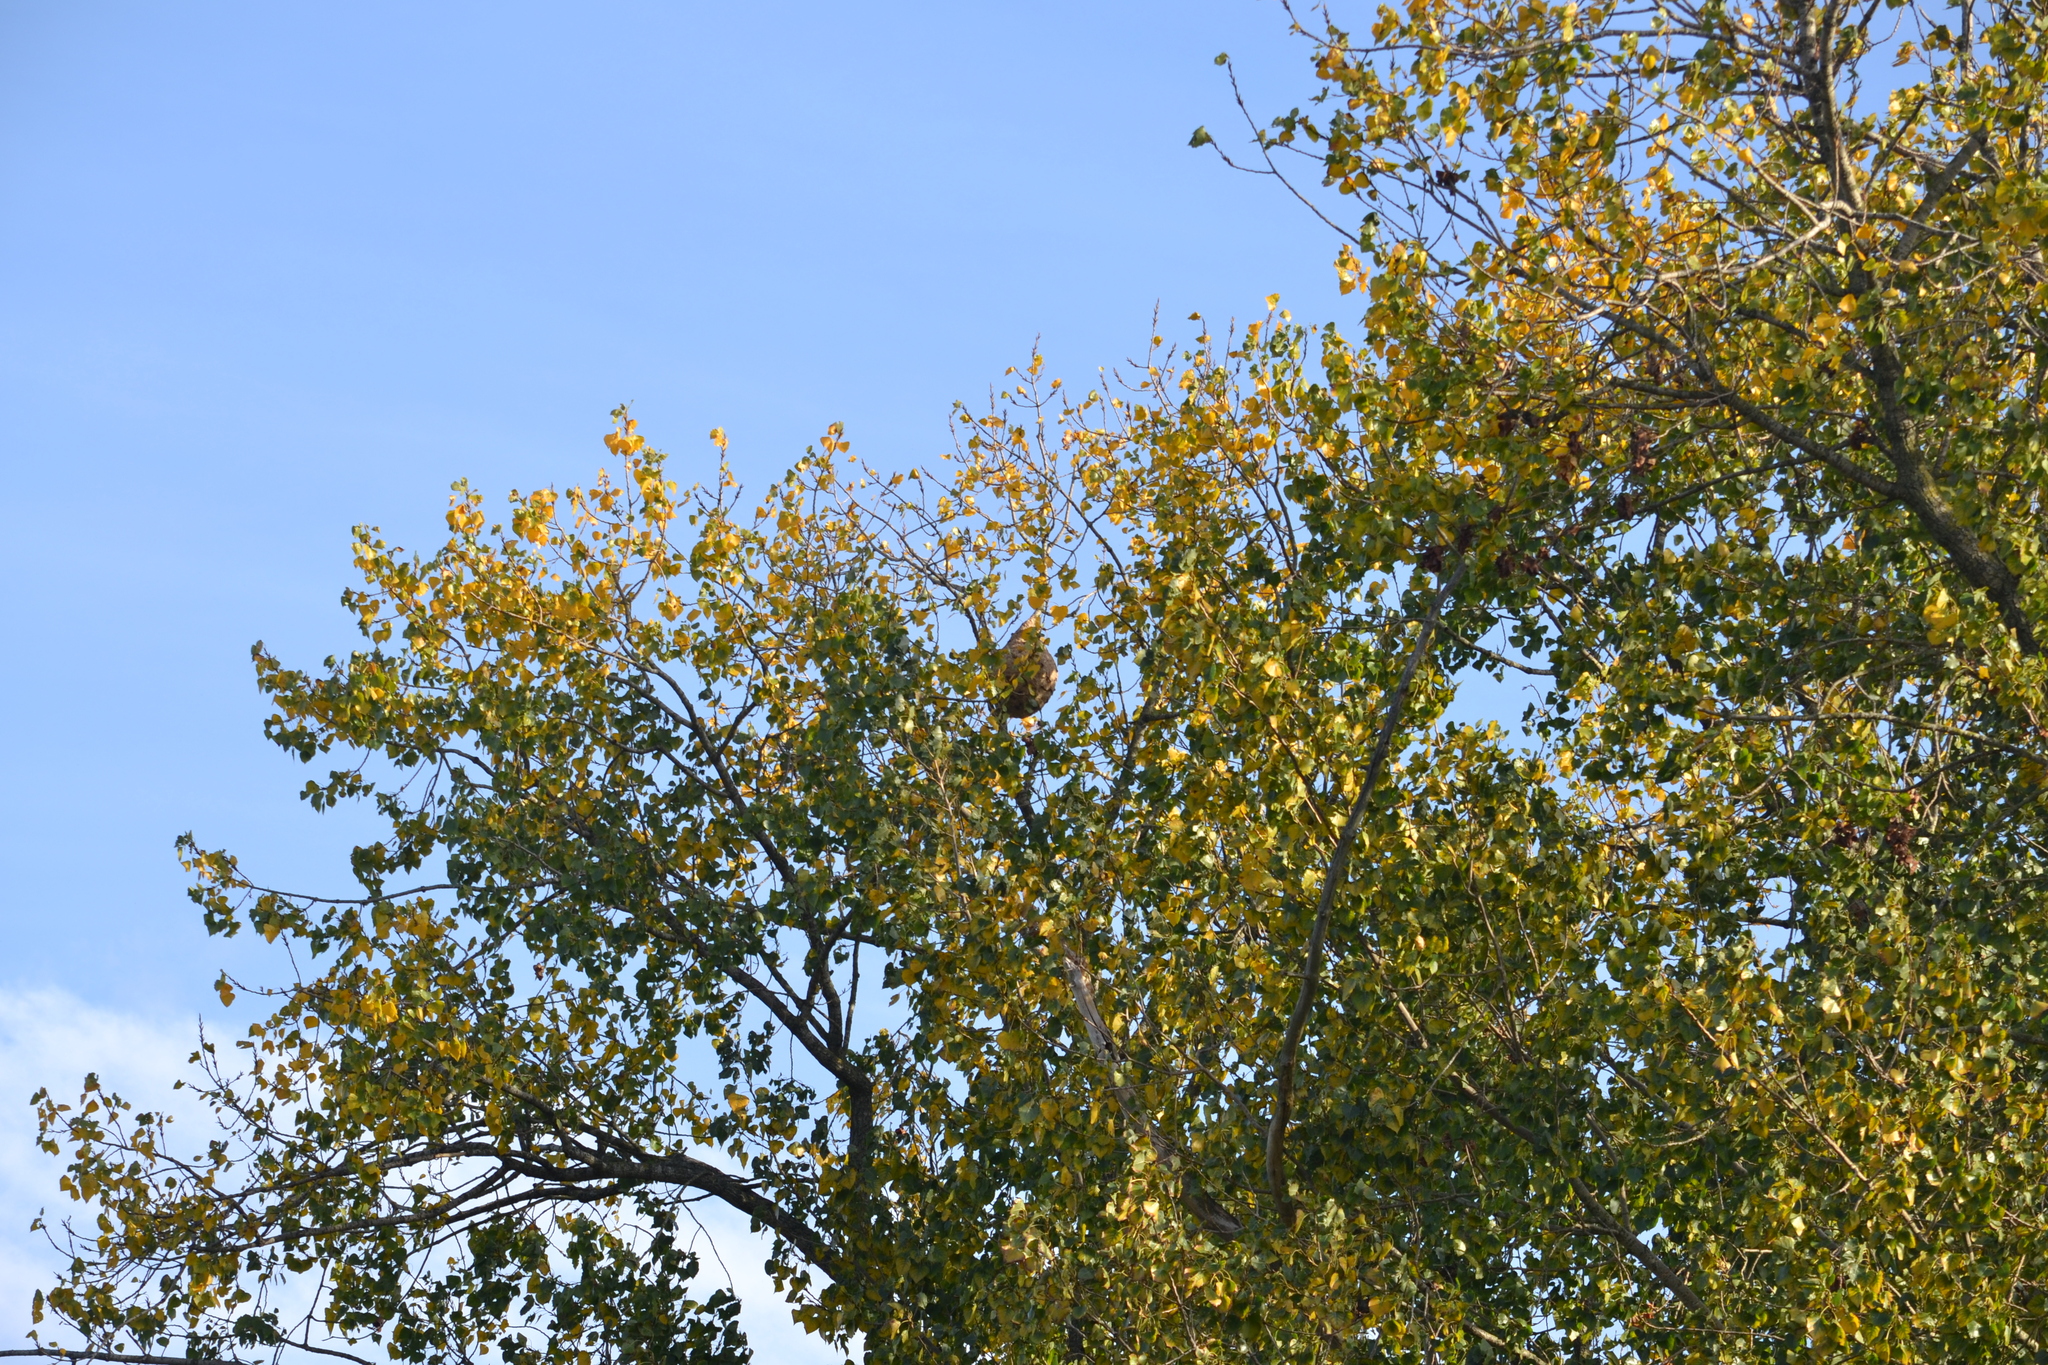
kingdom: Animalia
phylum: Arthropoda
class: Insecta
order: Hymenoptera
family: Vespidae
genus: Vespa
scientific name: Vespa velutina
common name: Asian hornet
